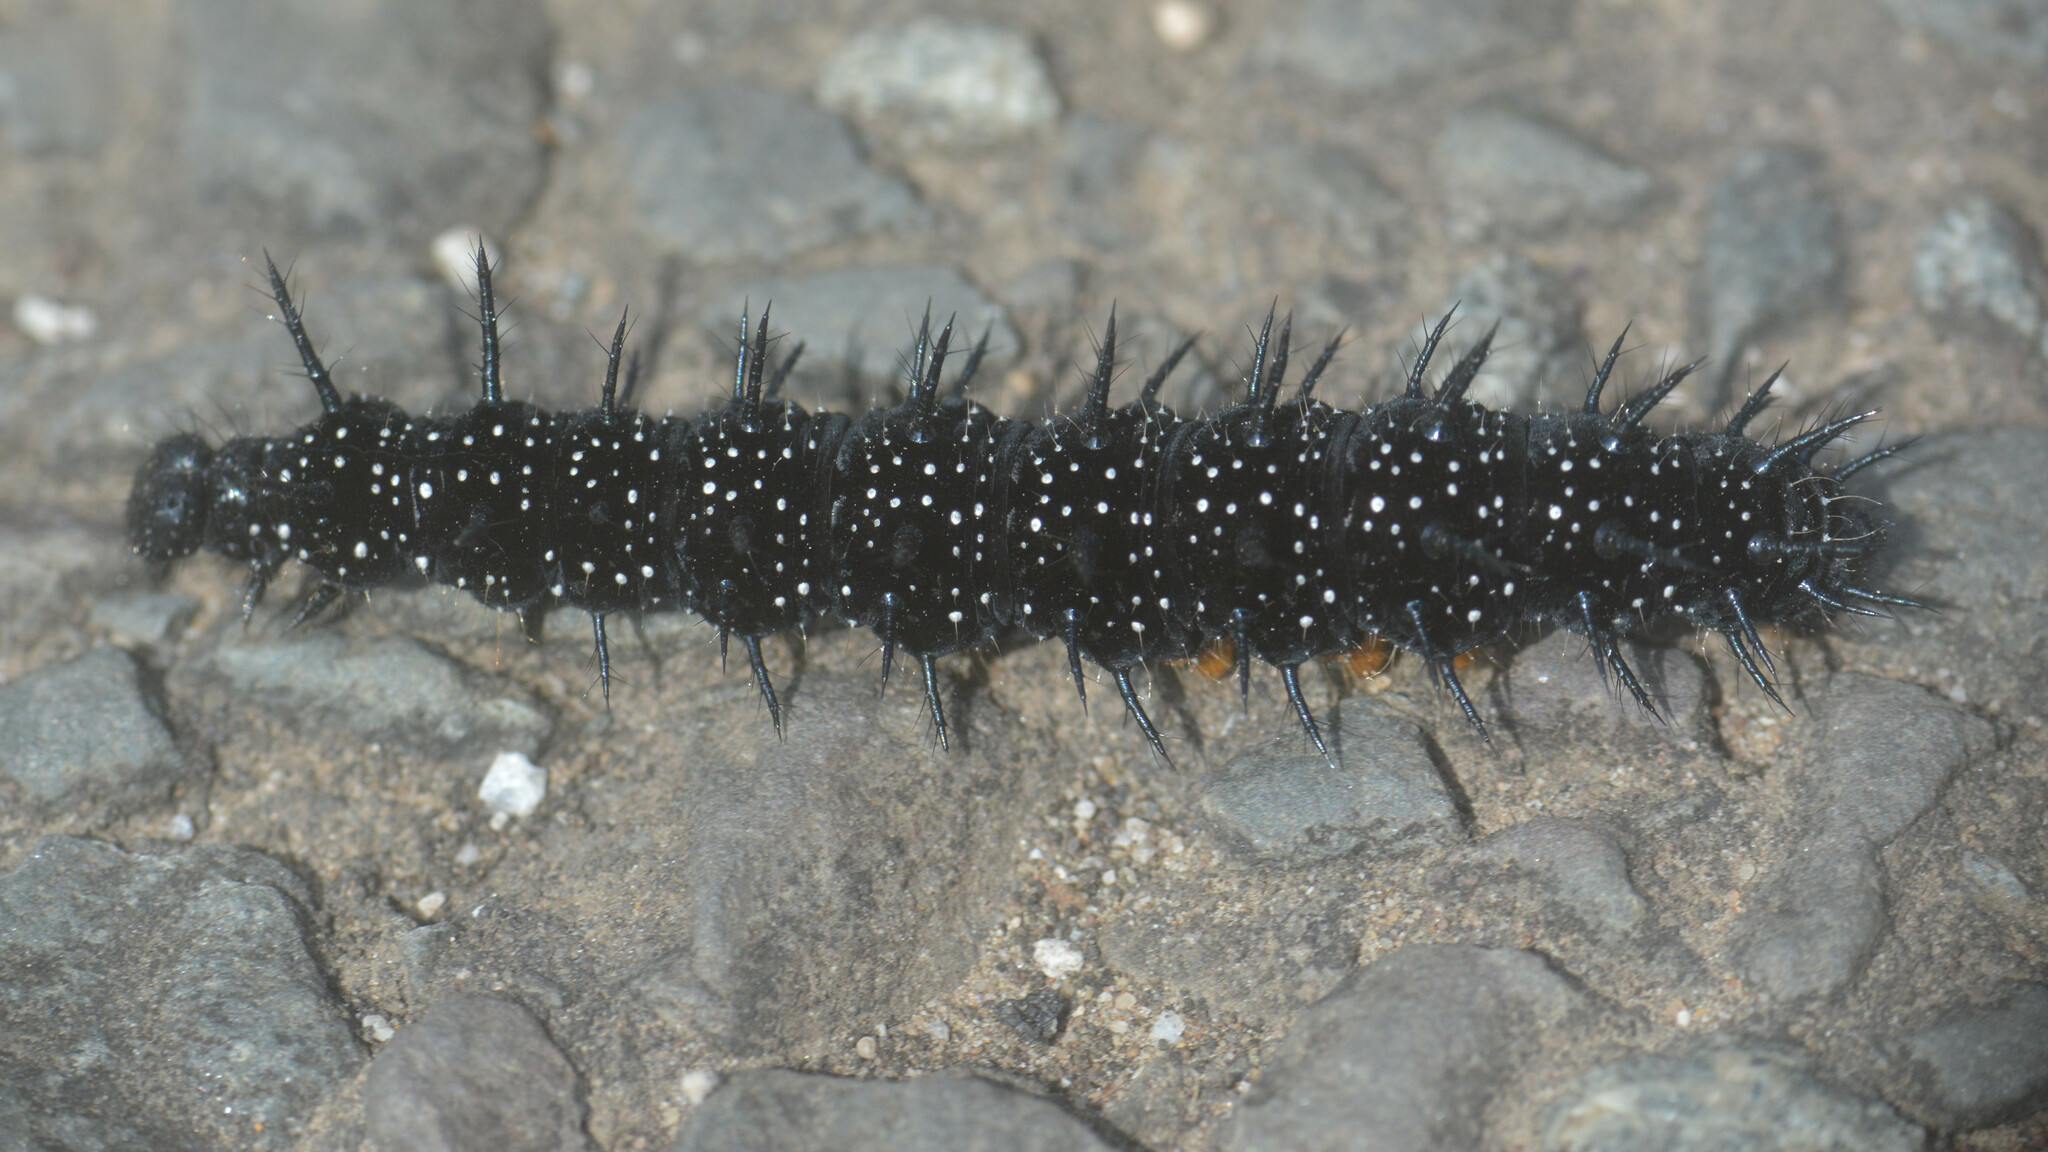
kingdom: Animalia
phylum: Arthropoda
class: Insecta
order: Lepidoptera
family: Nymphalidae
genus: Aglais
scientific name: Aglais io
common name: Peacock
